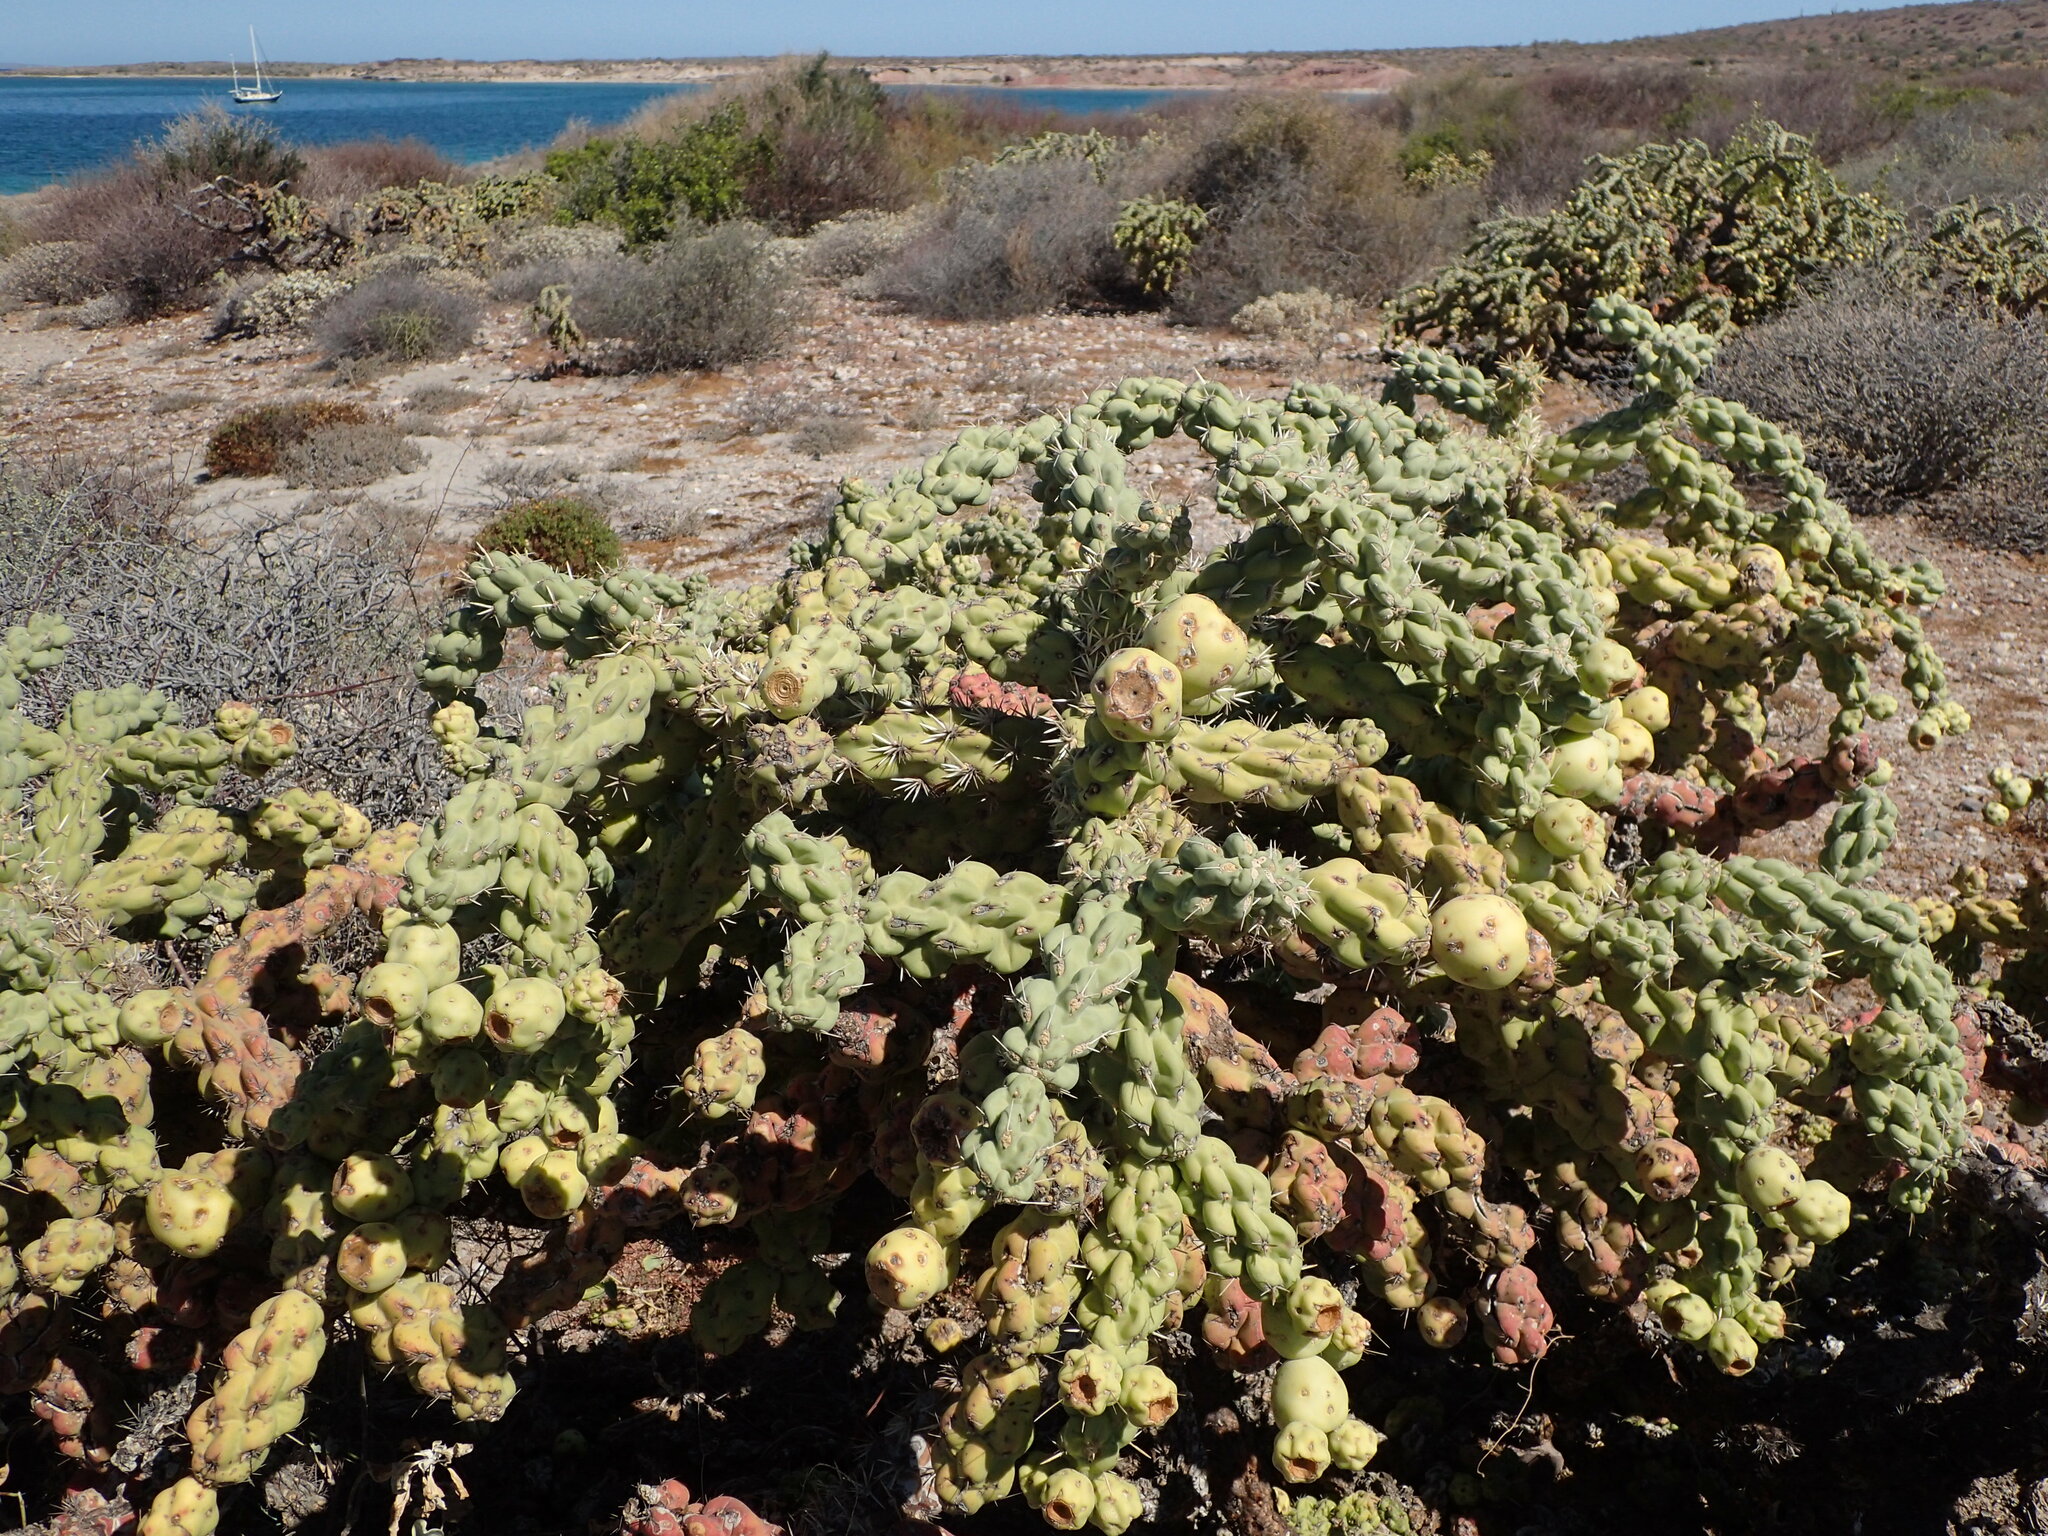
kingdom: Plantae
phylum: Tracheophyta
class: Magnoliopsida
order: Caryophyllales
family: Cactaceae
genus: Cylindropuntia
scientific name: Cylindropuntia cholla
